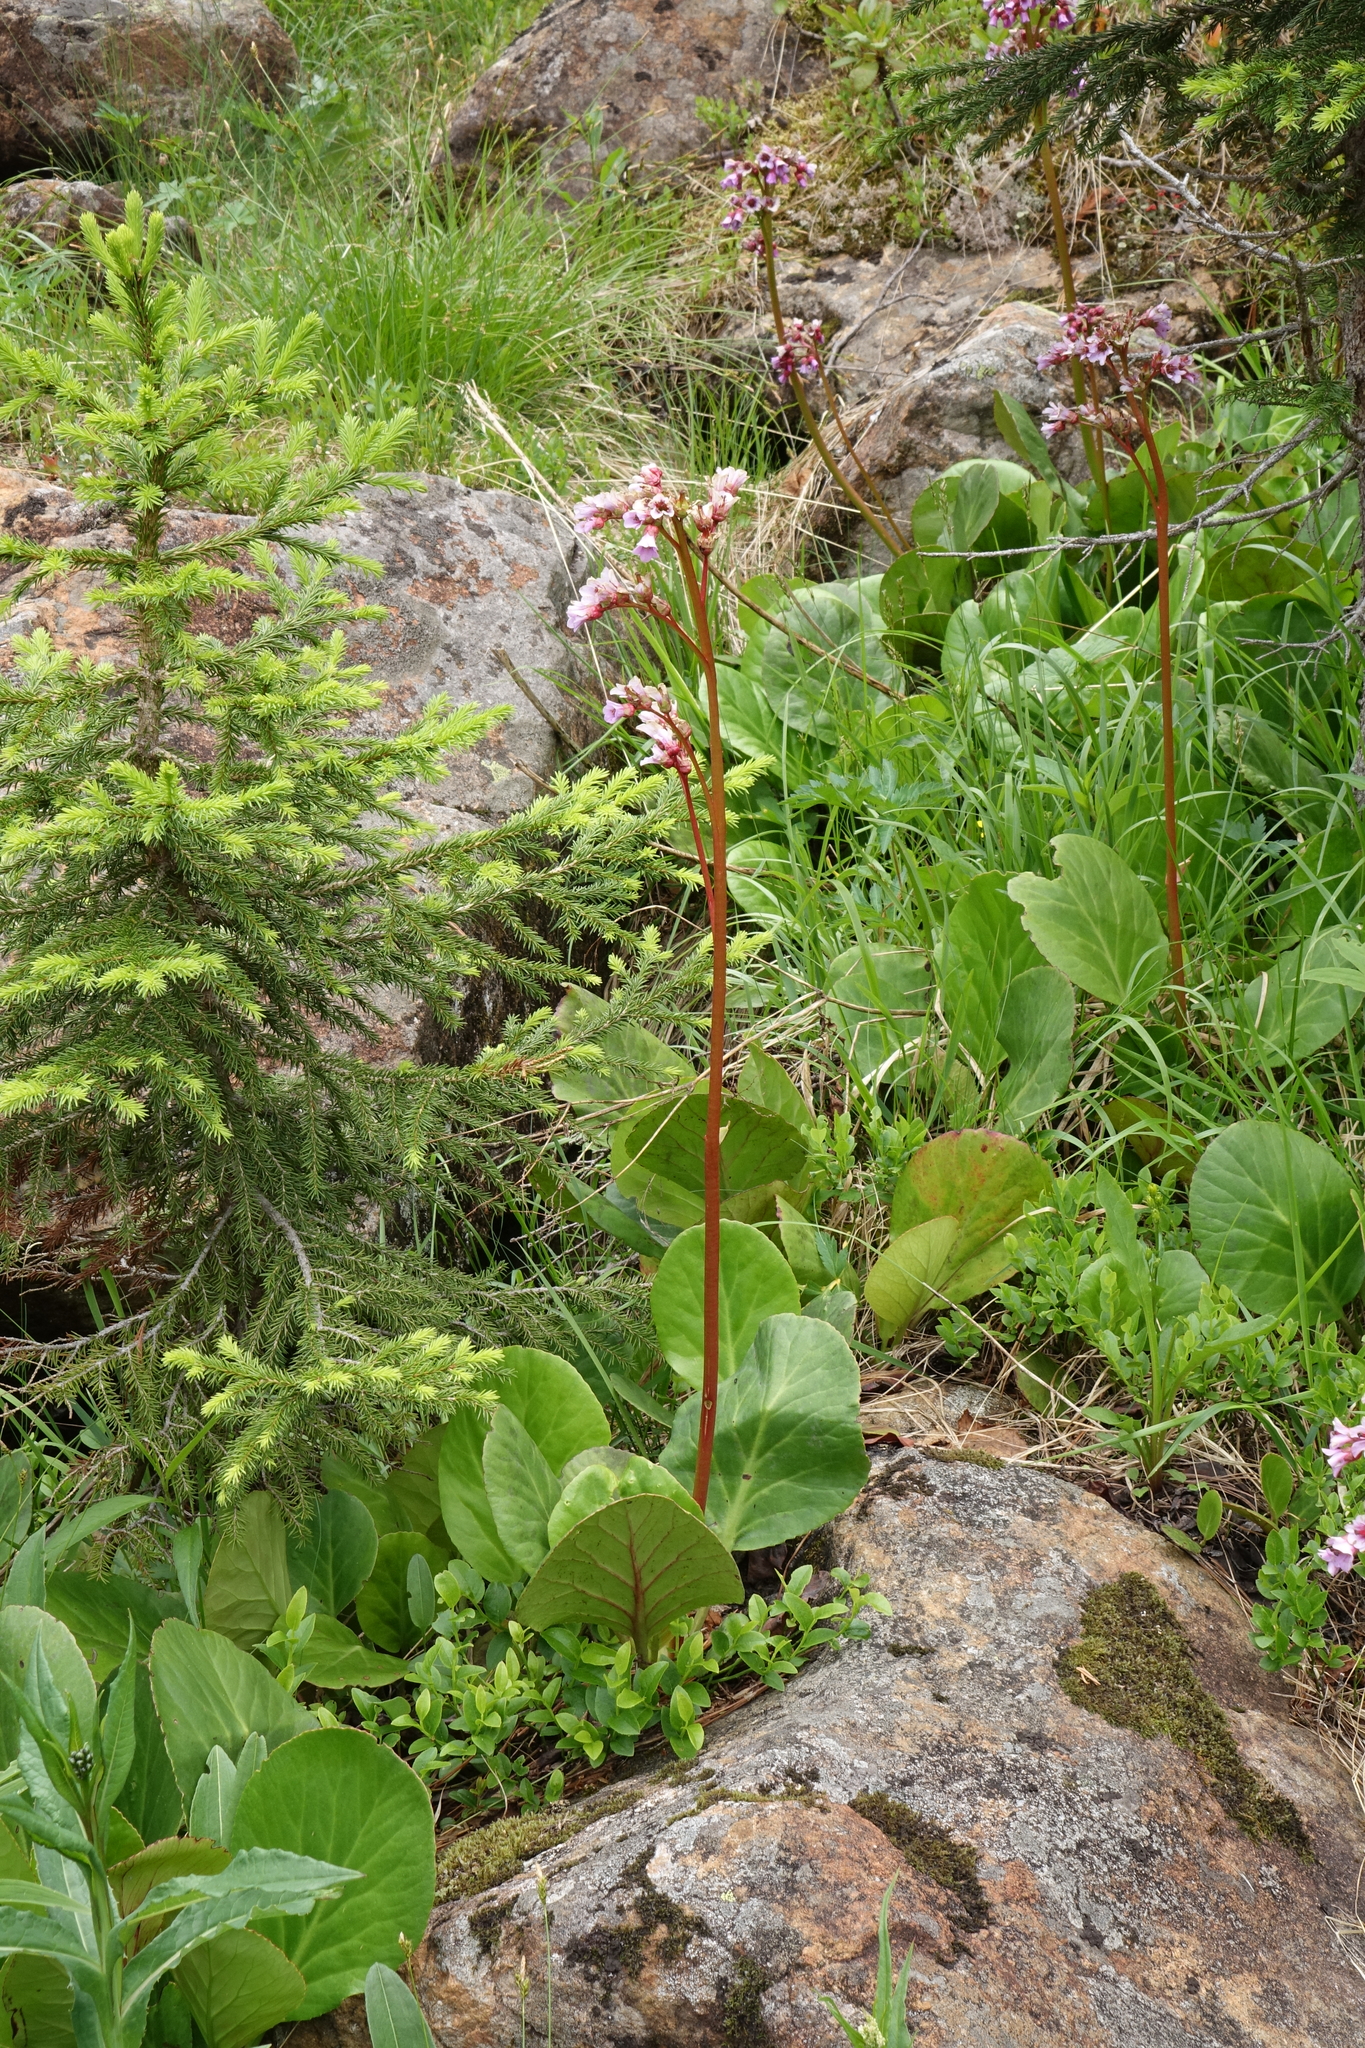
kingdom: Plantae
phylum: Tracheophyta
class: Pinopsida
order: Pinales
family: Pinaceae
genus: Picea
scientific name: Picea obovata
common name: Siberian spruce
